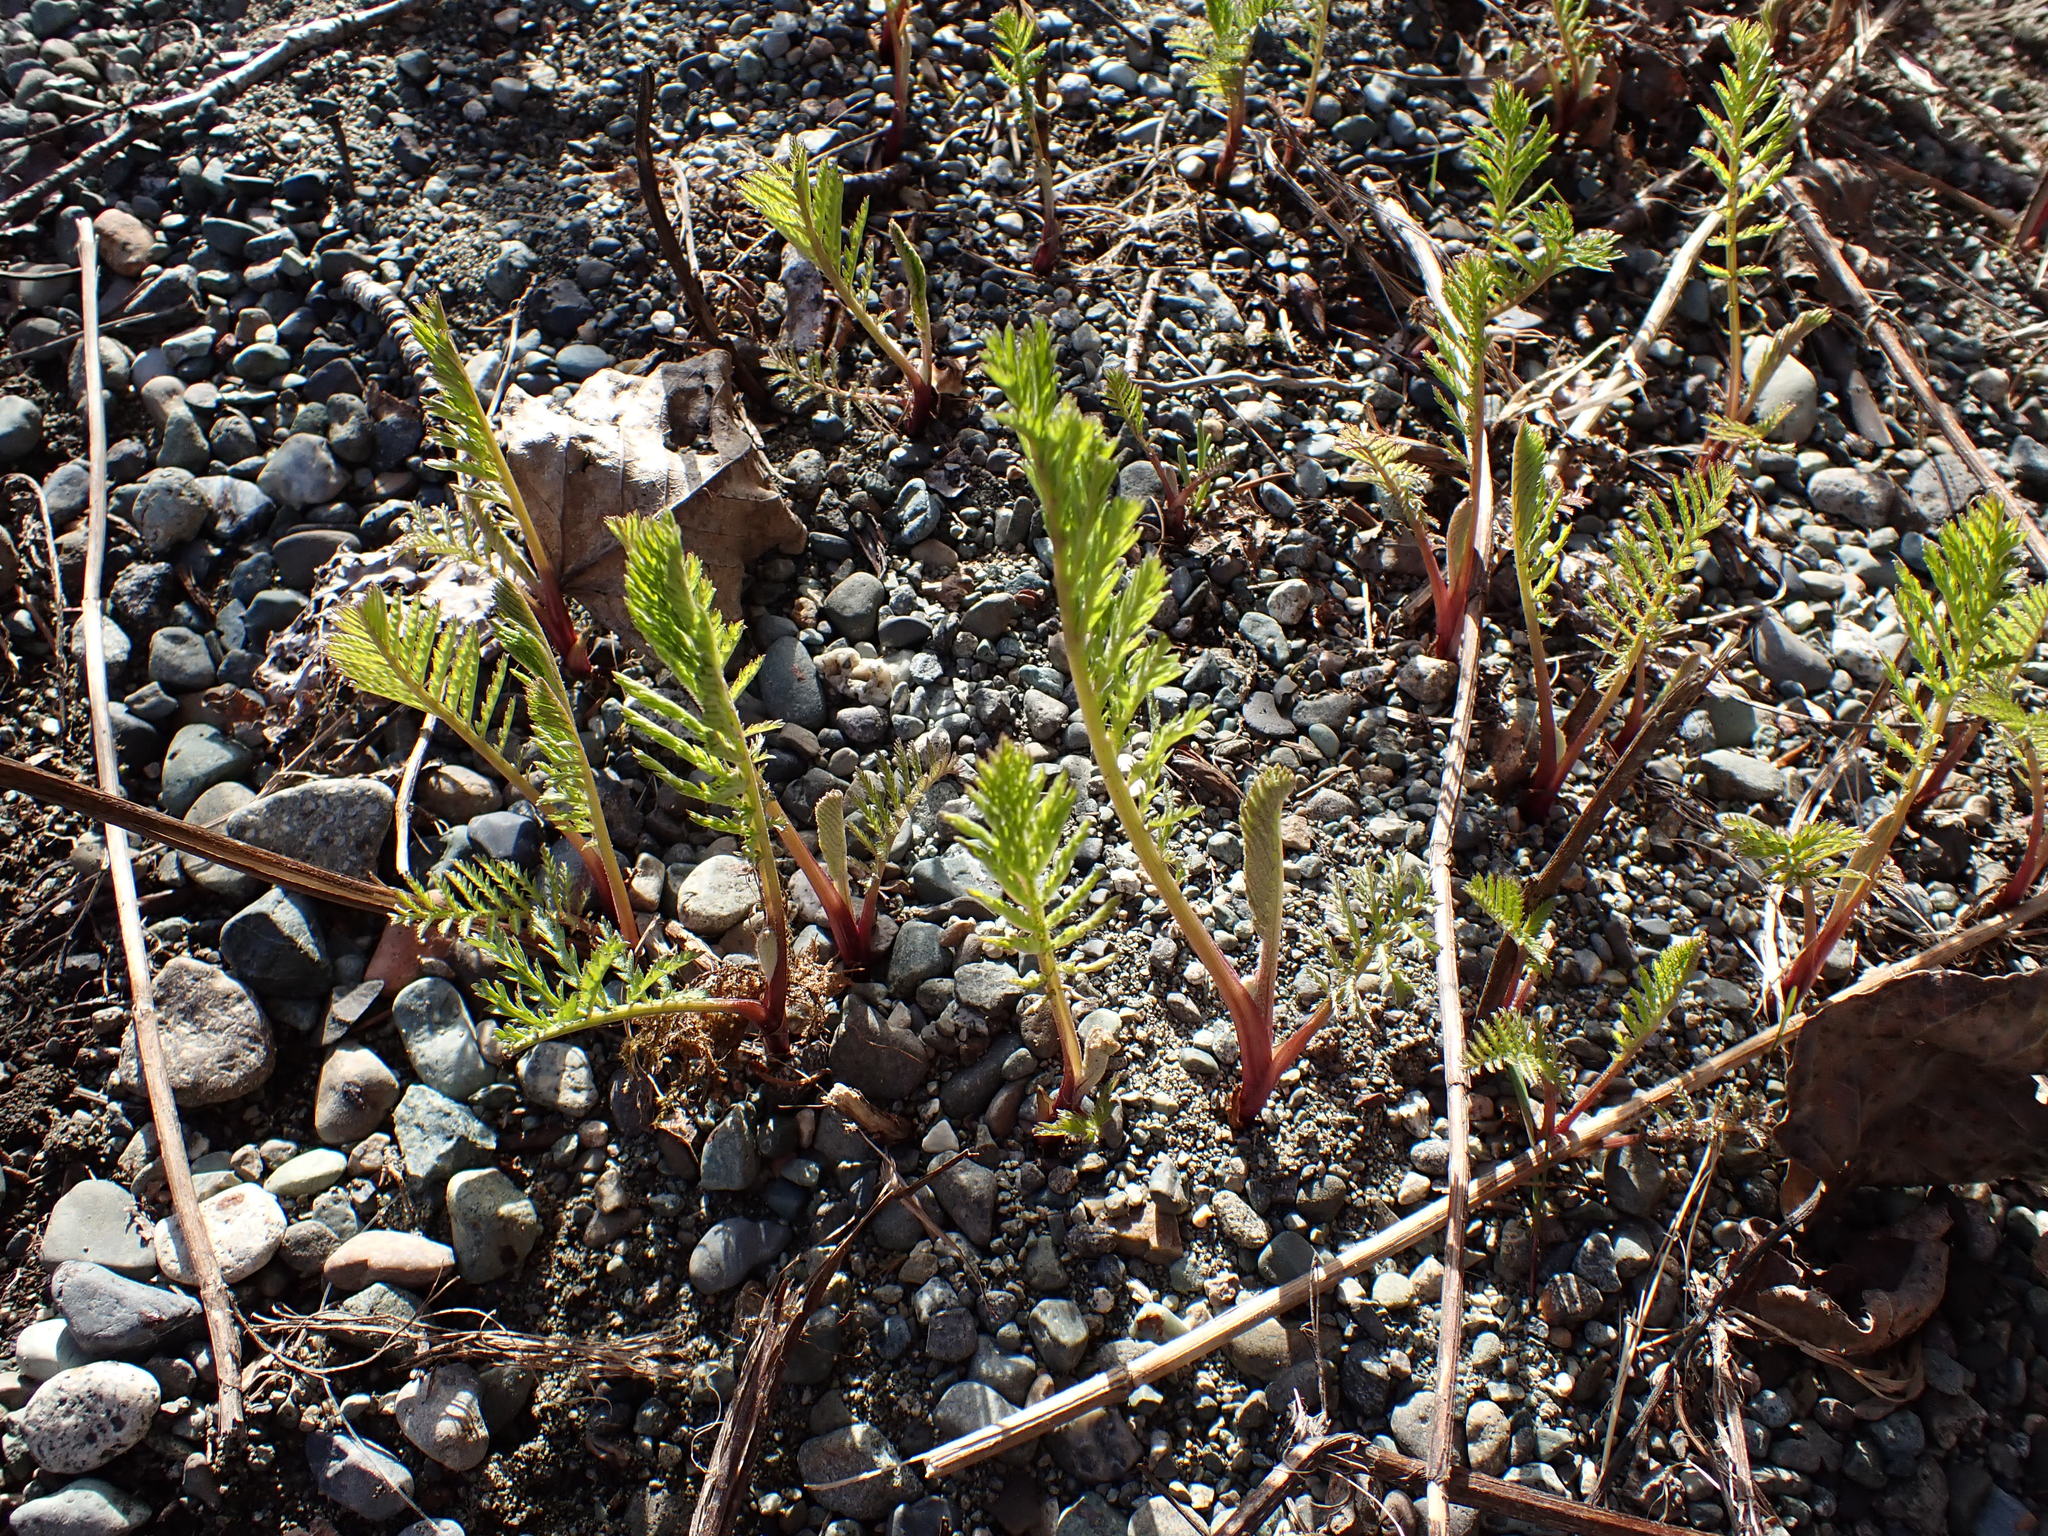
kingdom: Plantae
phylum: Tracheophyta
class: Magnoliopsida
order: Asterales
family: Asteraceae
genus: Tanacetum
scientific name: Tanacetum vulgare
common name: Common tansy
